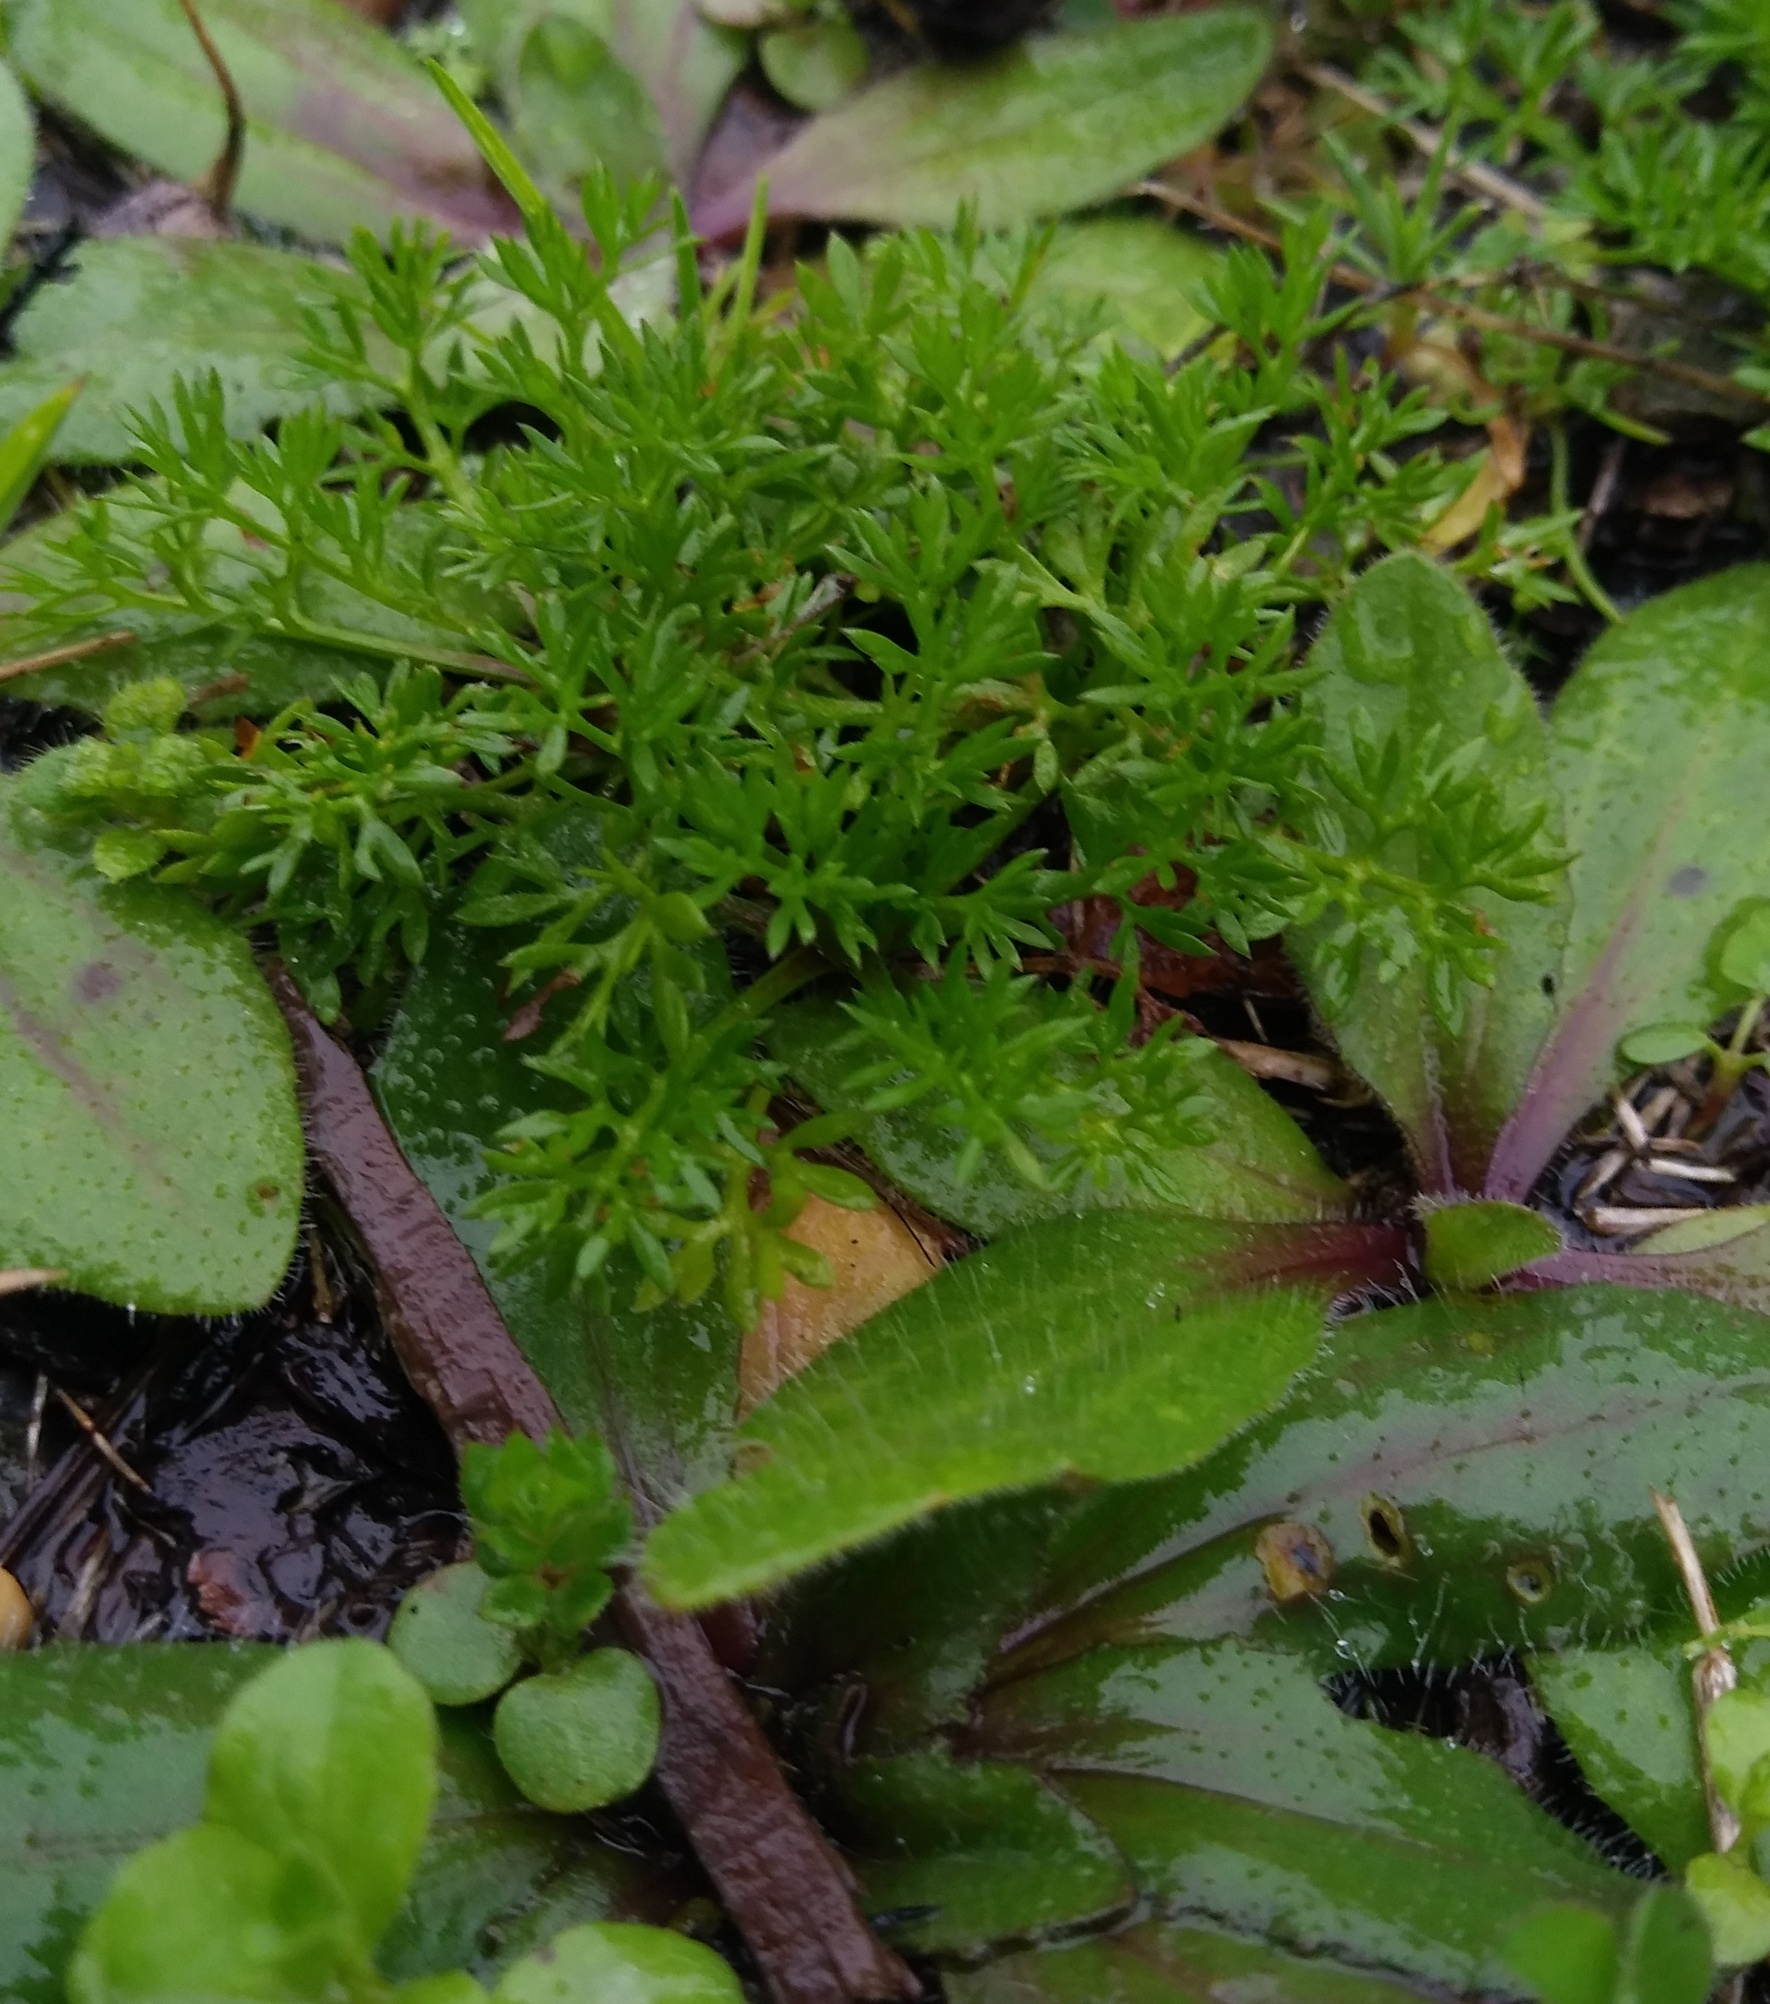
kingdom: Plantae
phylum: Tracheophyta
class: Magnoliopsida
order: Asterales
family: Asteraceae
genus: Soliva
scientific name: Soliva sessilis
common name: Field burrweed
